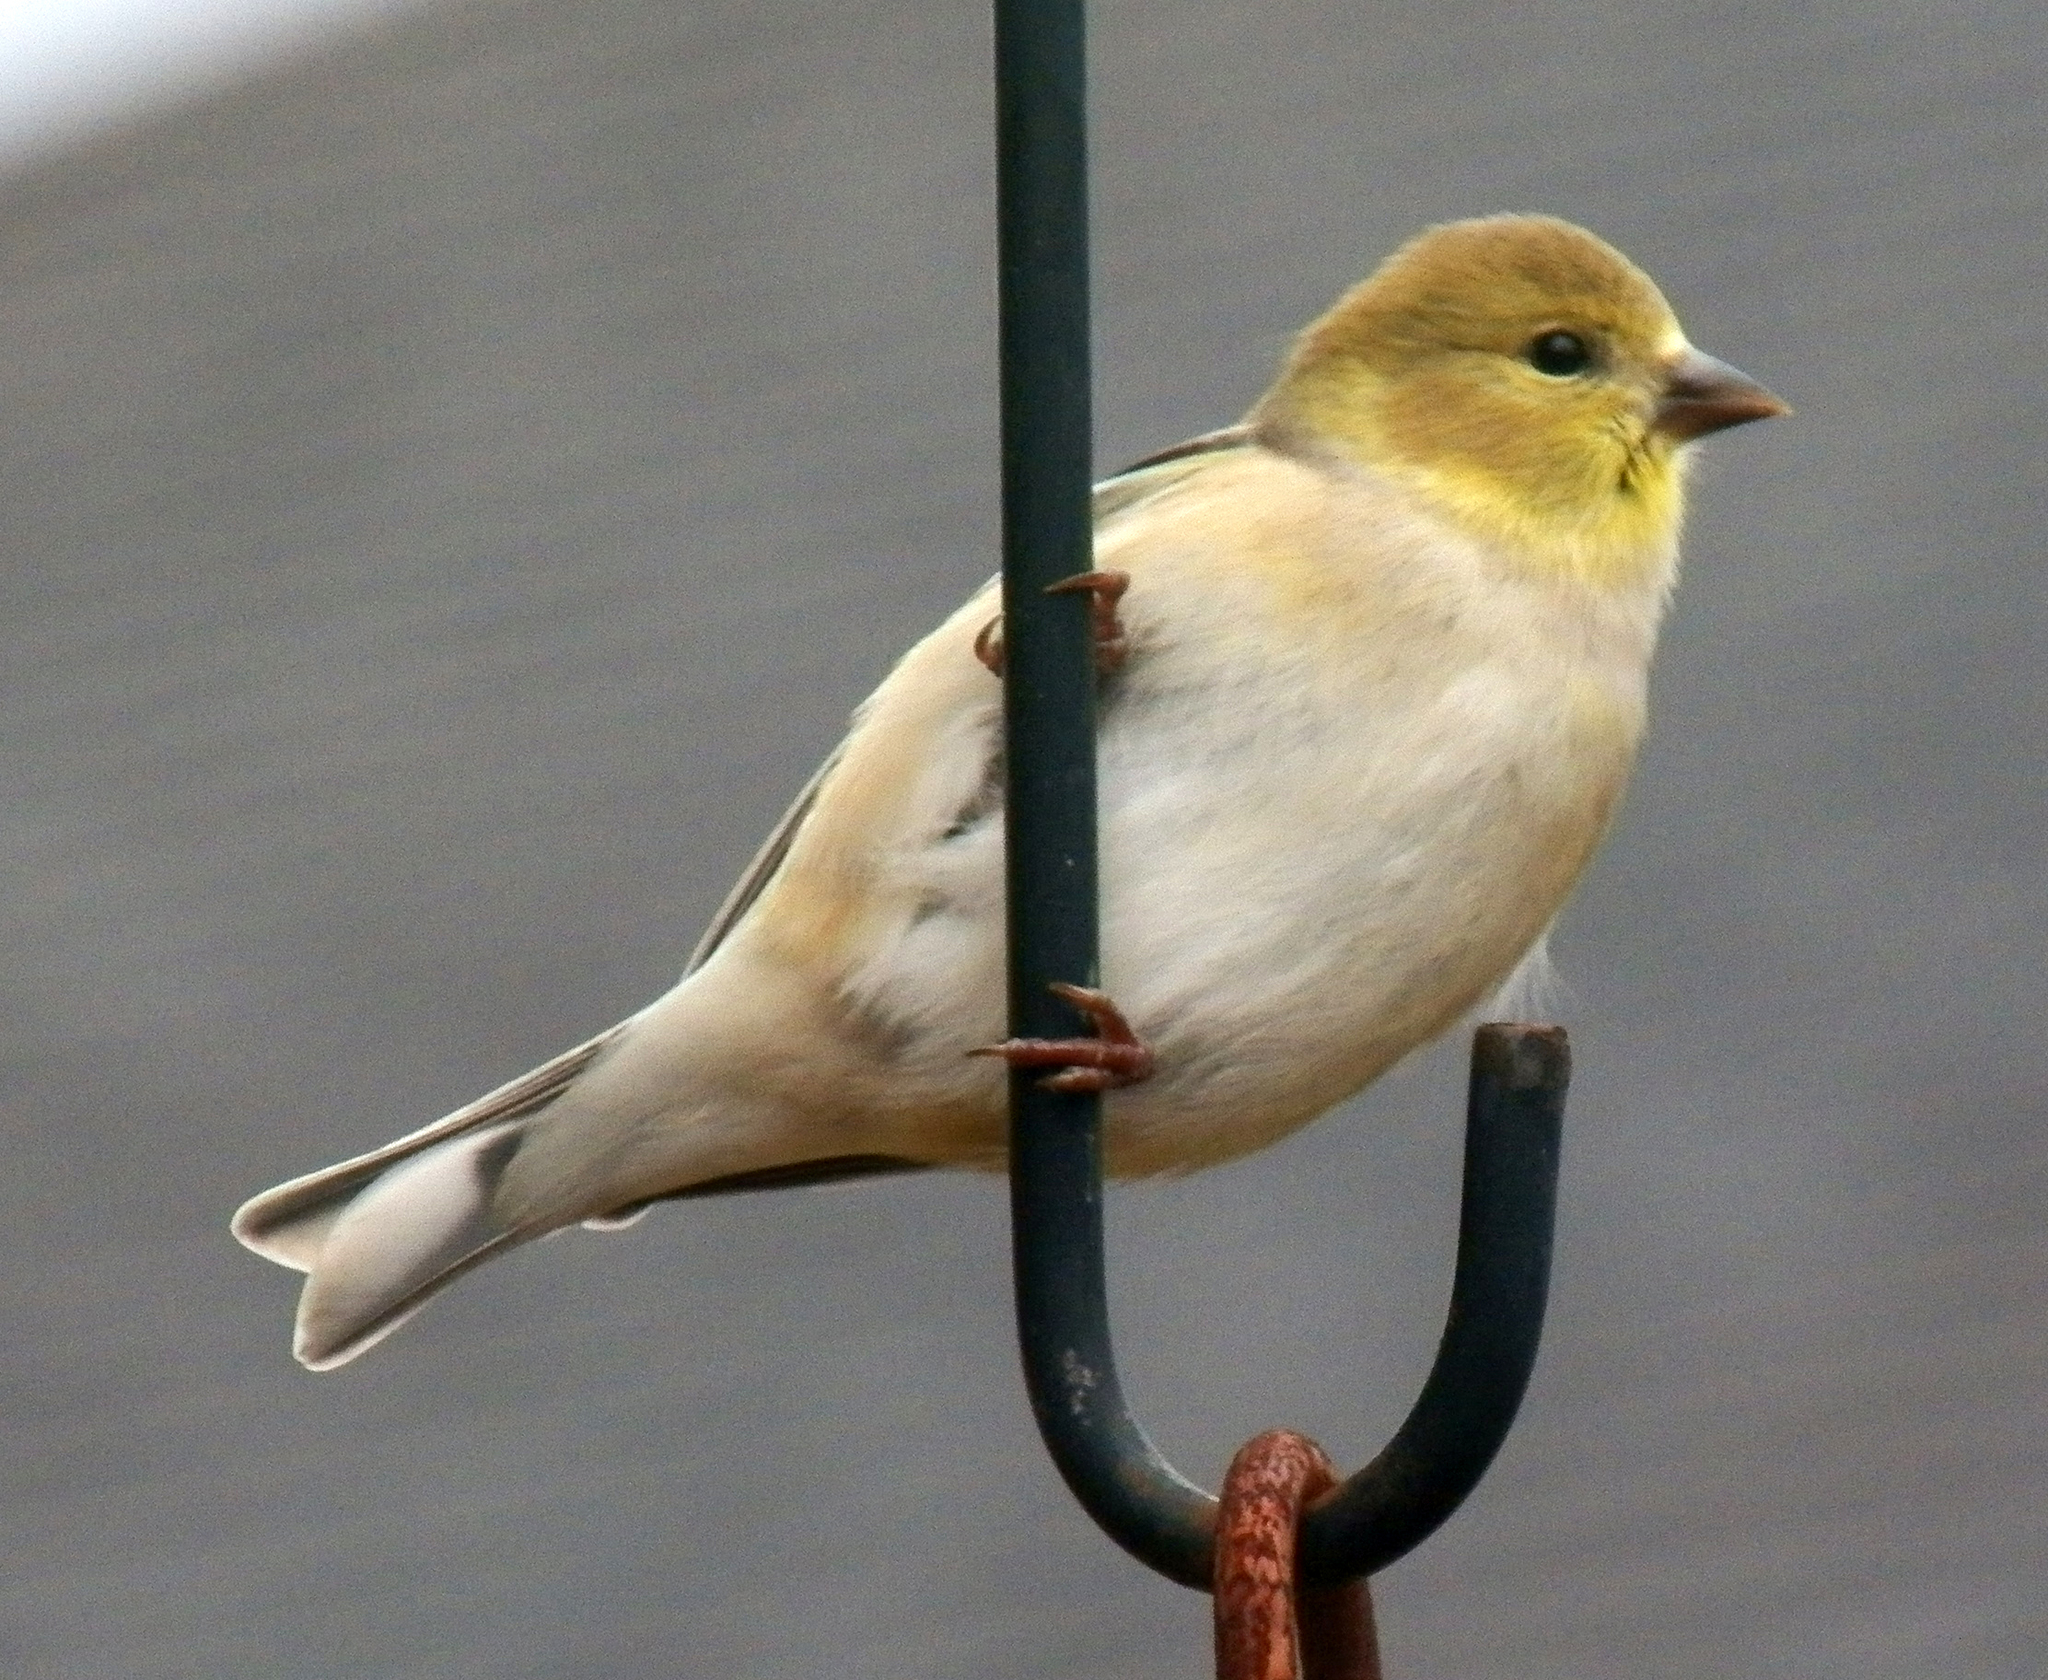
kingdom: Animalia
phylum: Chordata
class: Aves
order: Passeriformes
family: Fringillidae
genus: Spinus
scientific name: Spinus tristis
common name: American goldfinch
